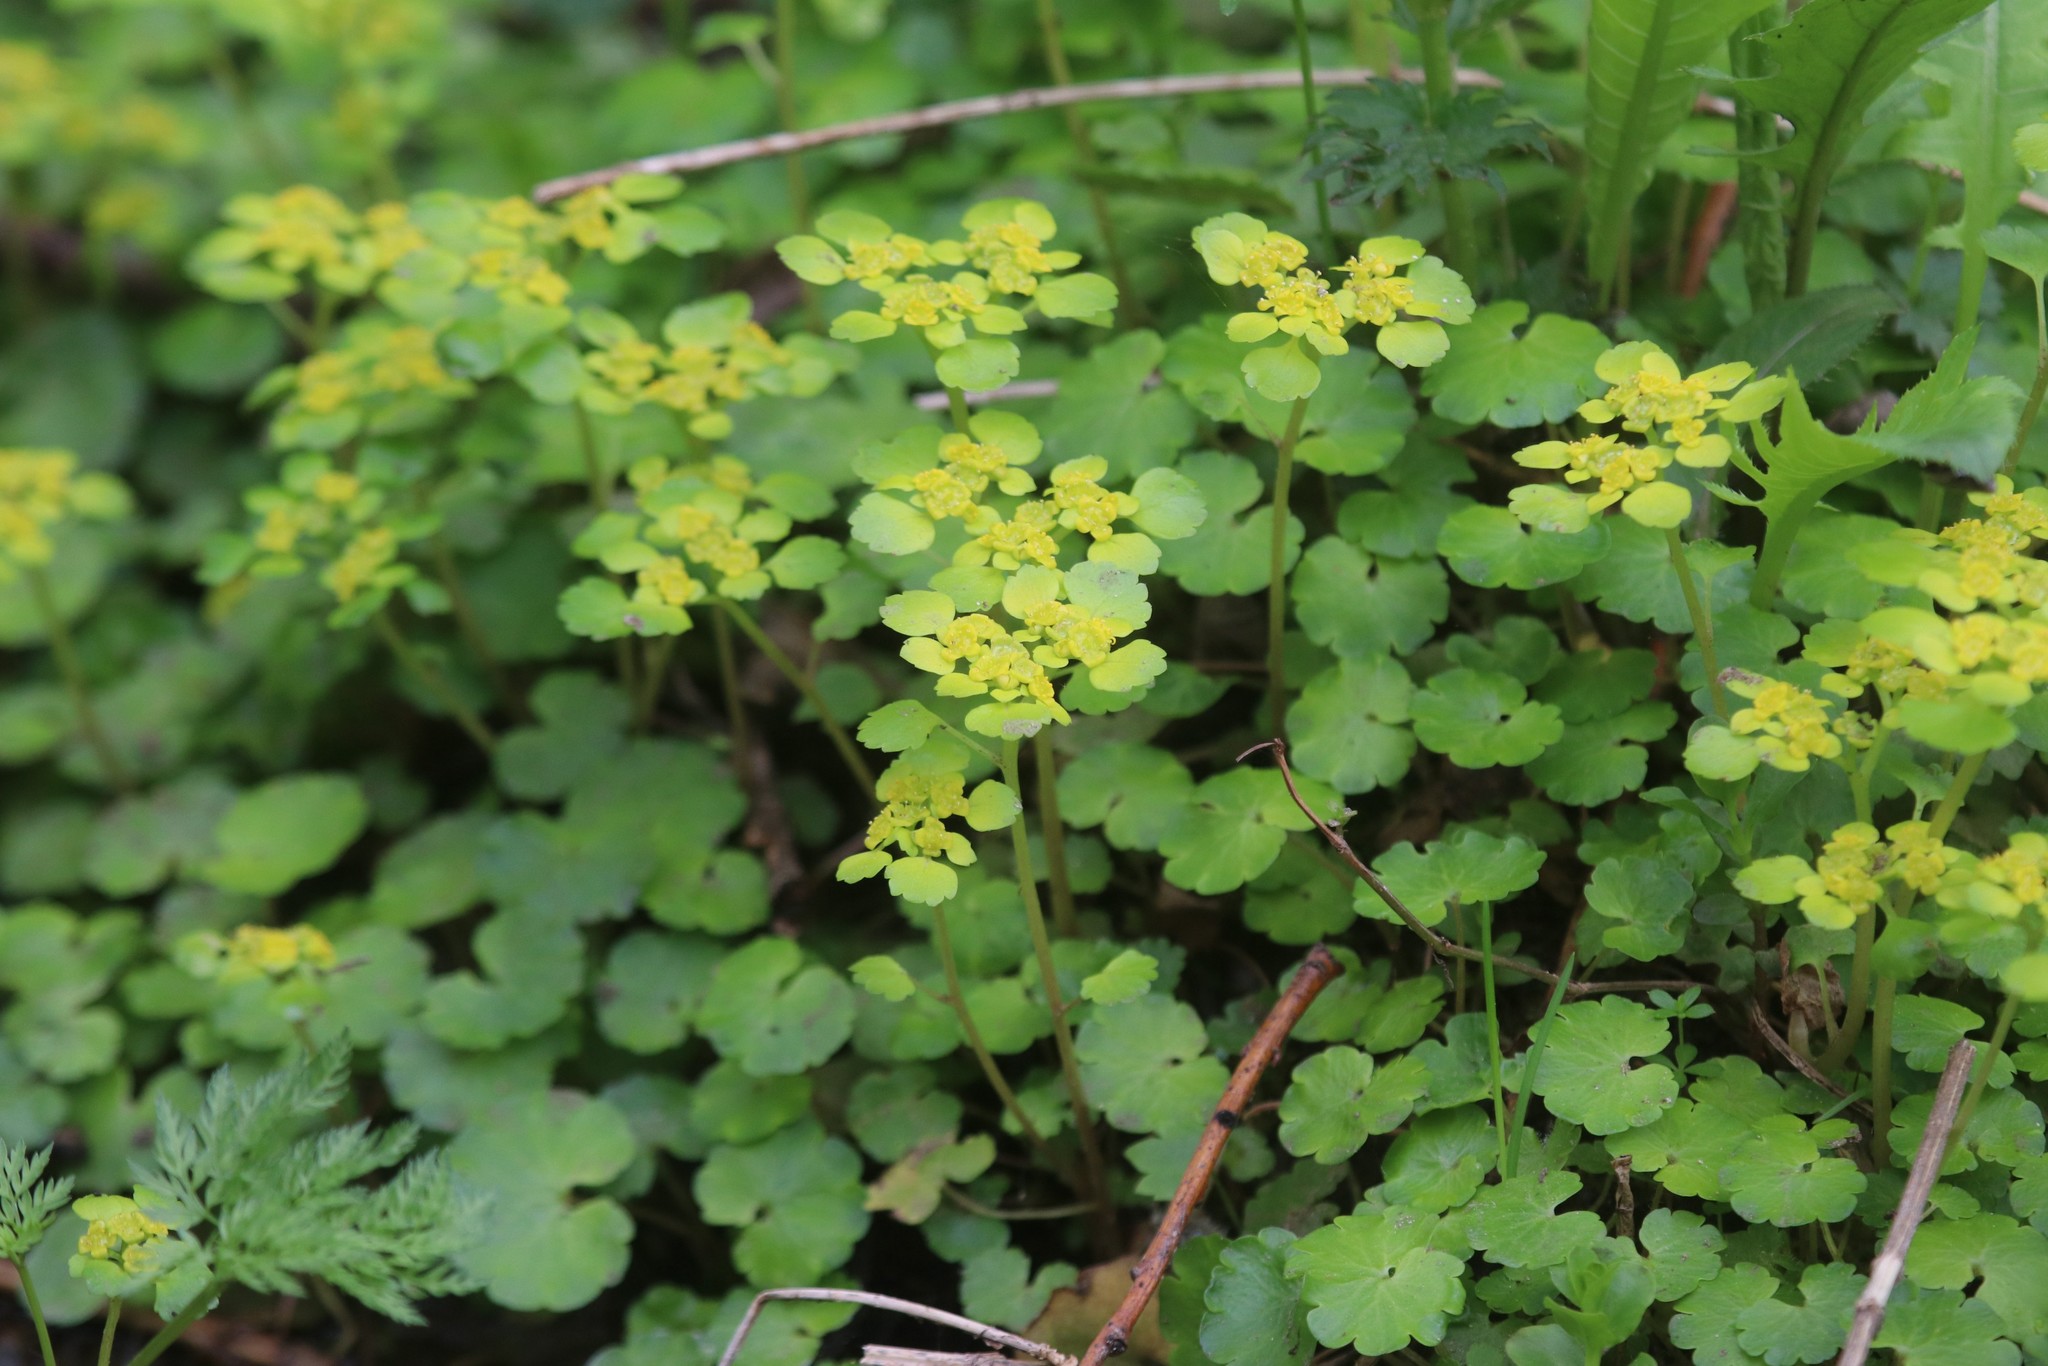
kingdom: Plantae
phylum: Tracheophyta
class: Magnoliopsida
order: Saxifragales
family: Saxifragaceae
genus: Chrysosplenium
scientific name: Chrysosplenium alternifolium
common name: Alternate-leaved golden-saxifrage
